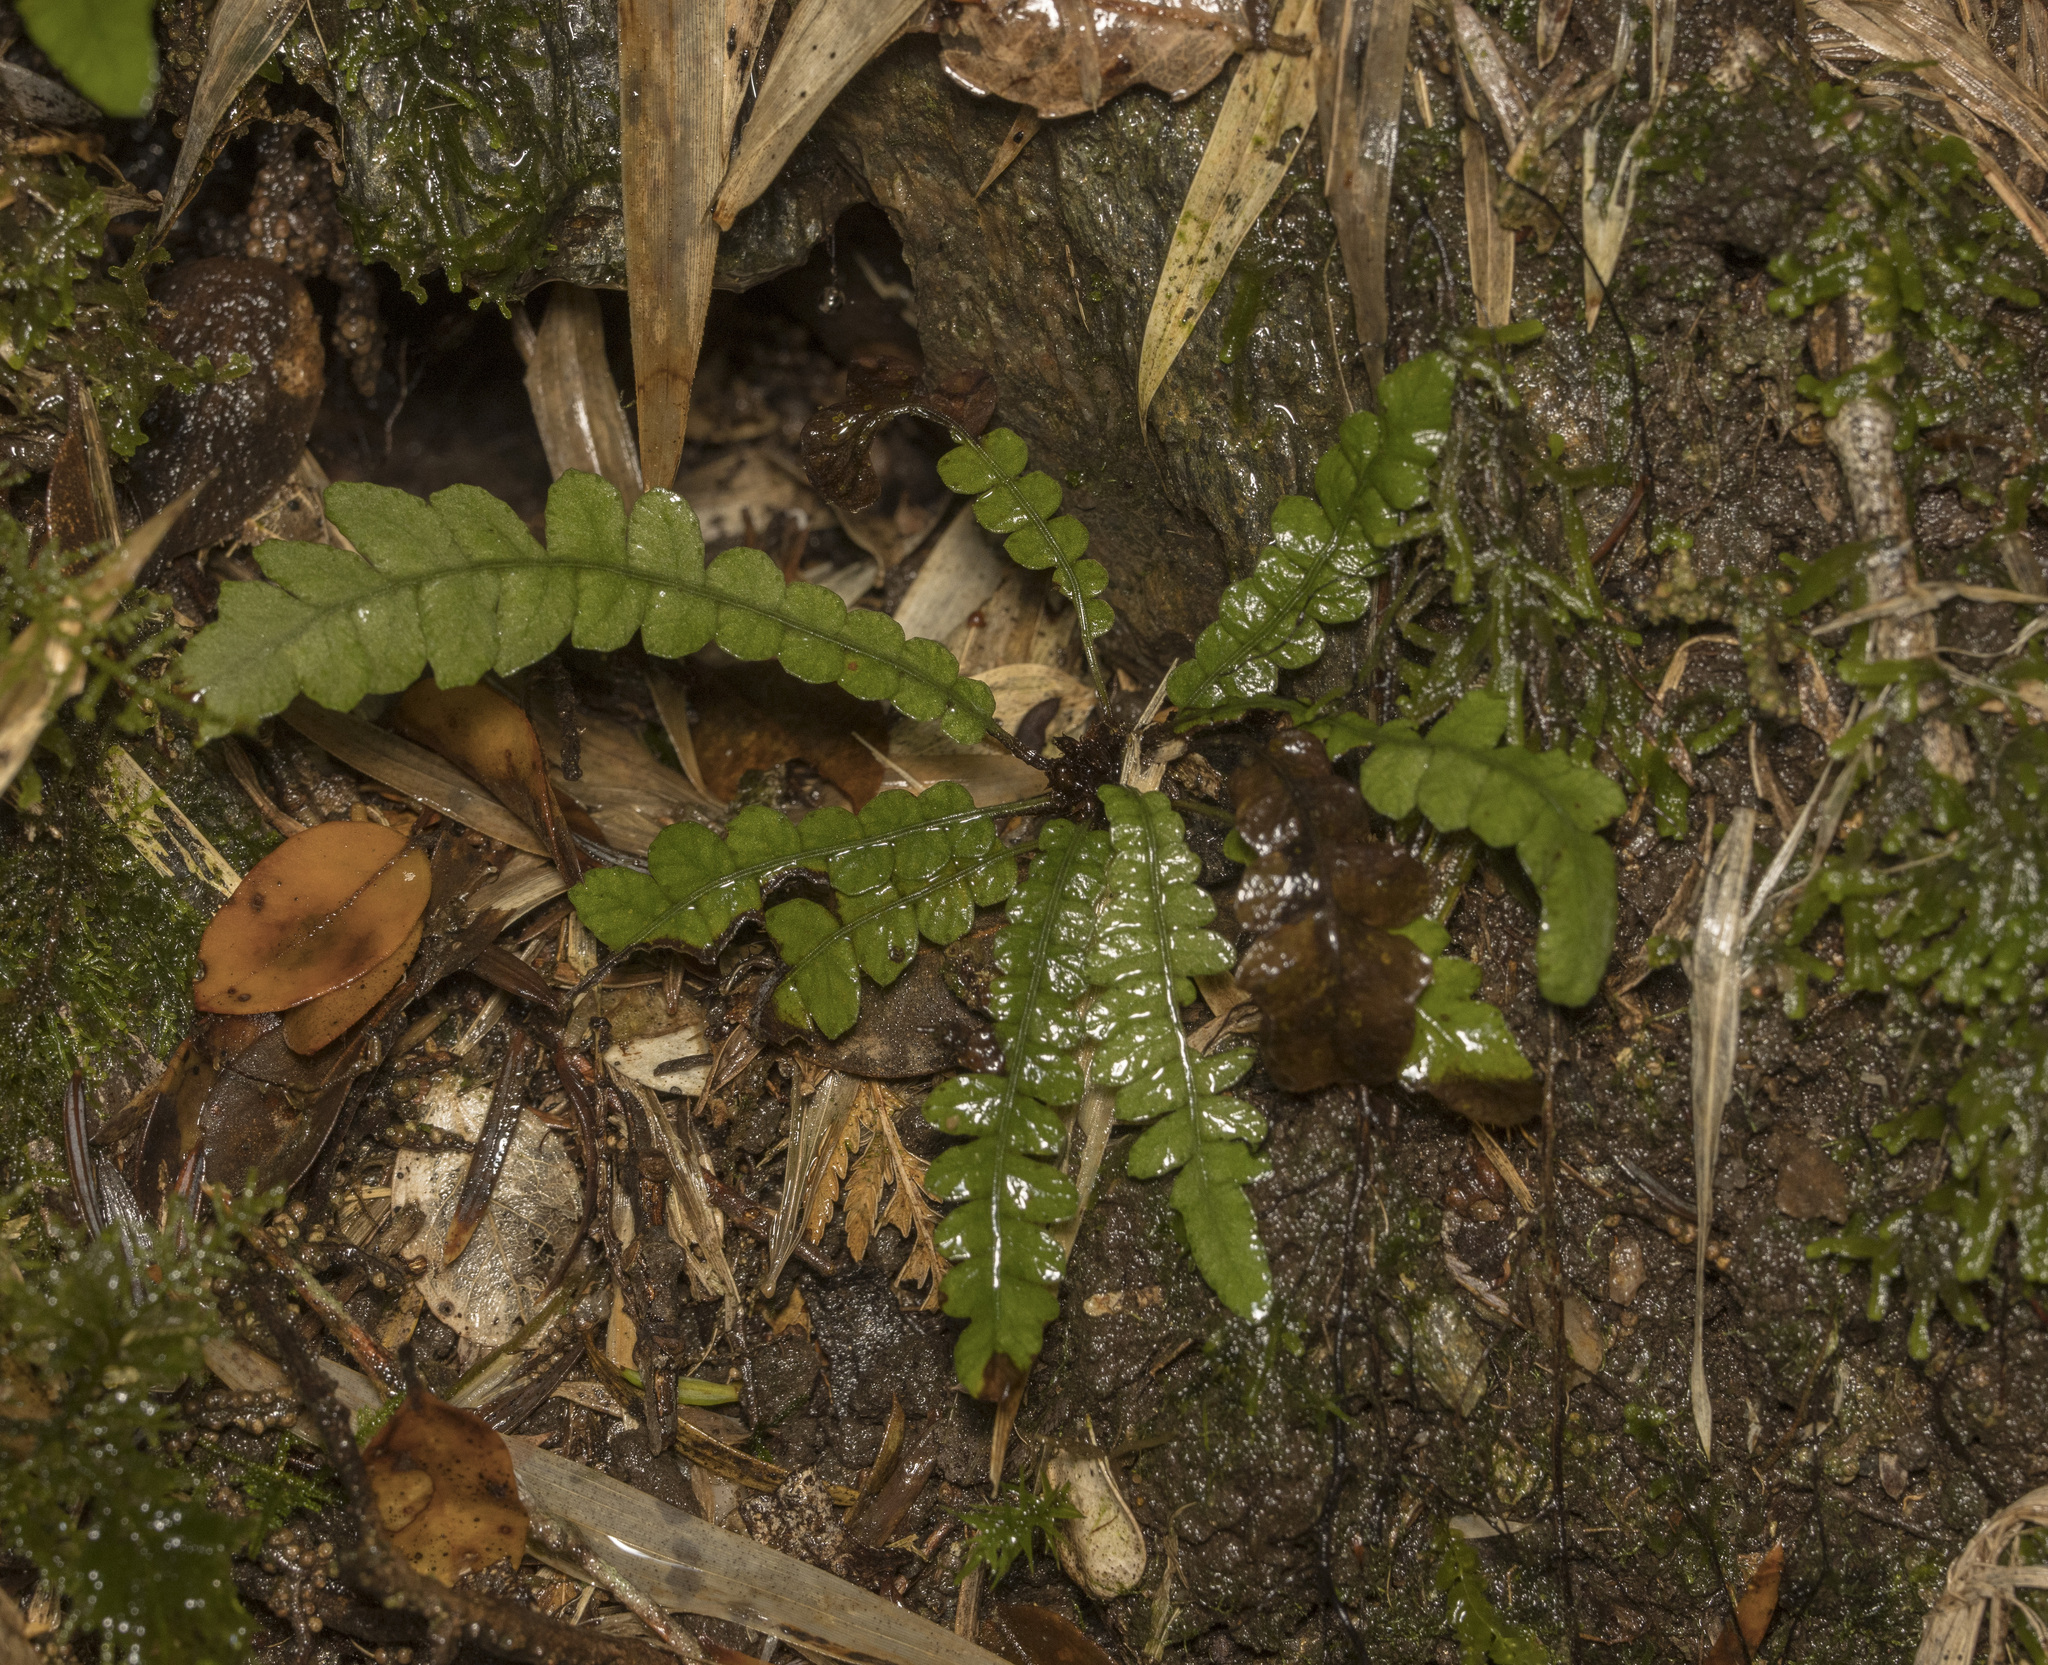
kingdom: Plantae
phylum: Tracheophyta
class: Polypodiopsida
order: Polypodiales
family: Blechnaceae
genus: Blechnum
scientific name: Blechnum corralense
